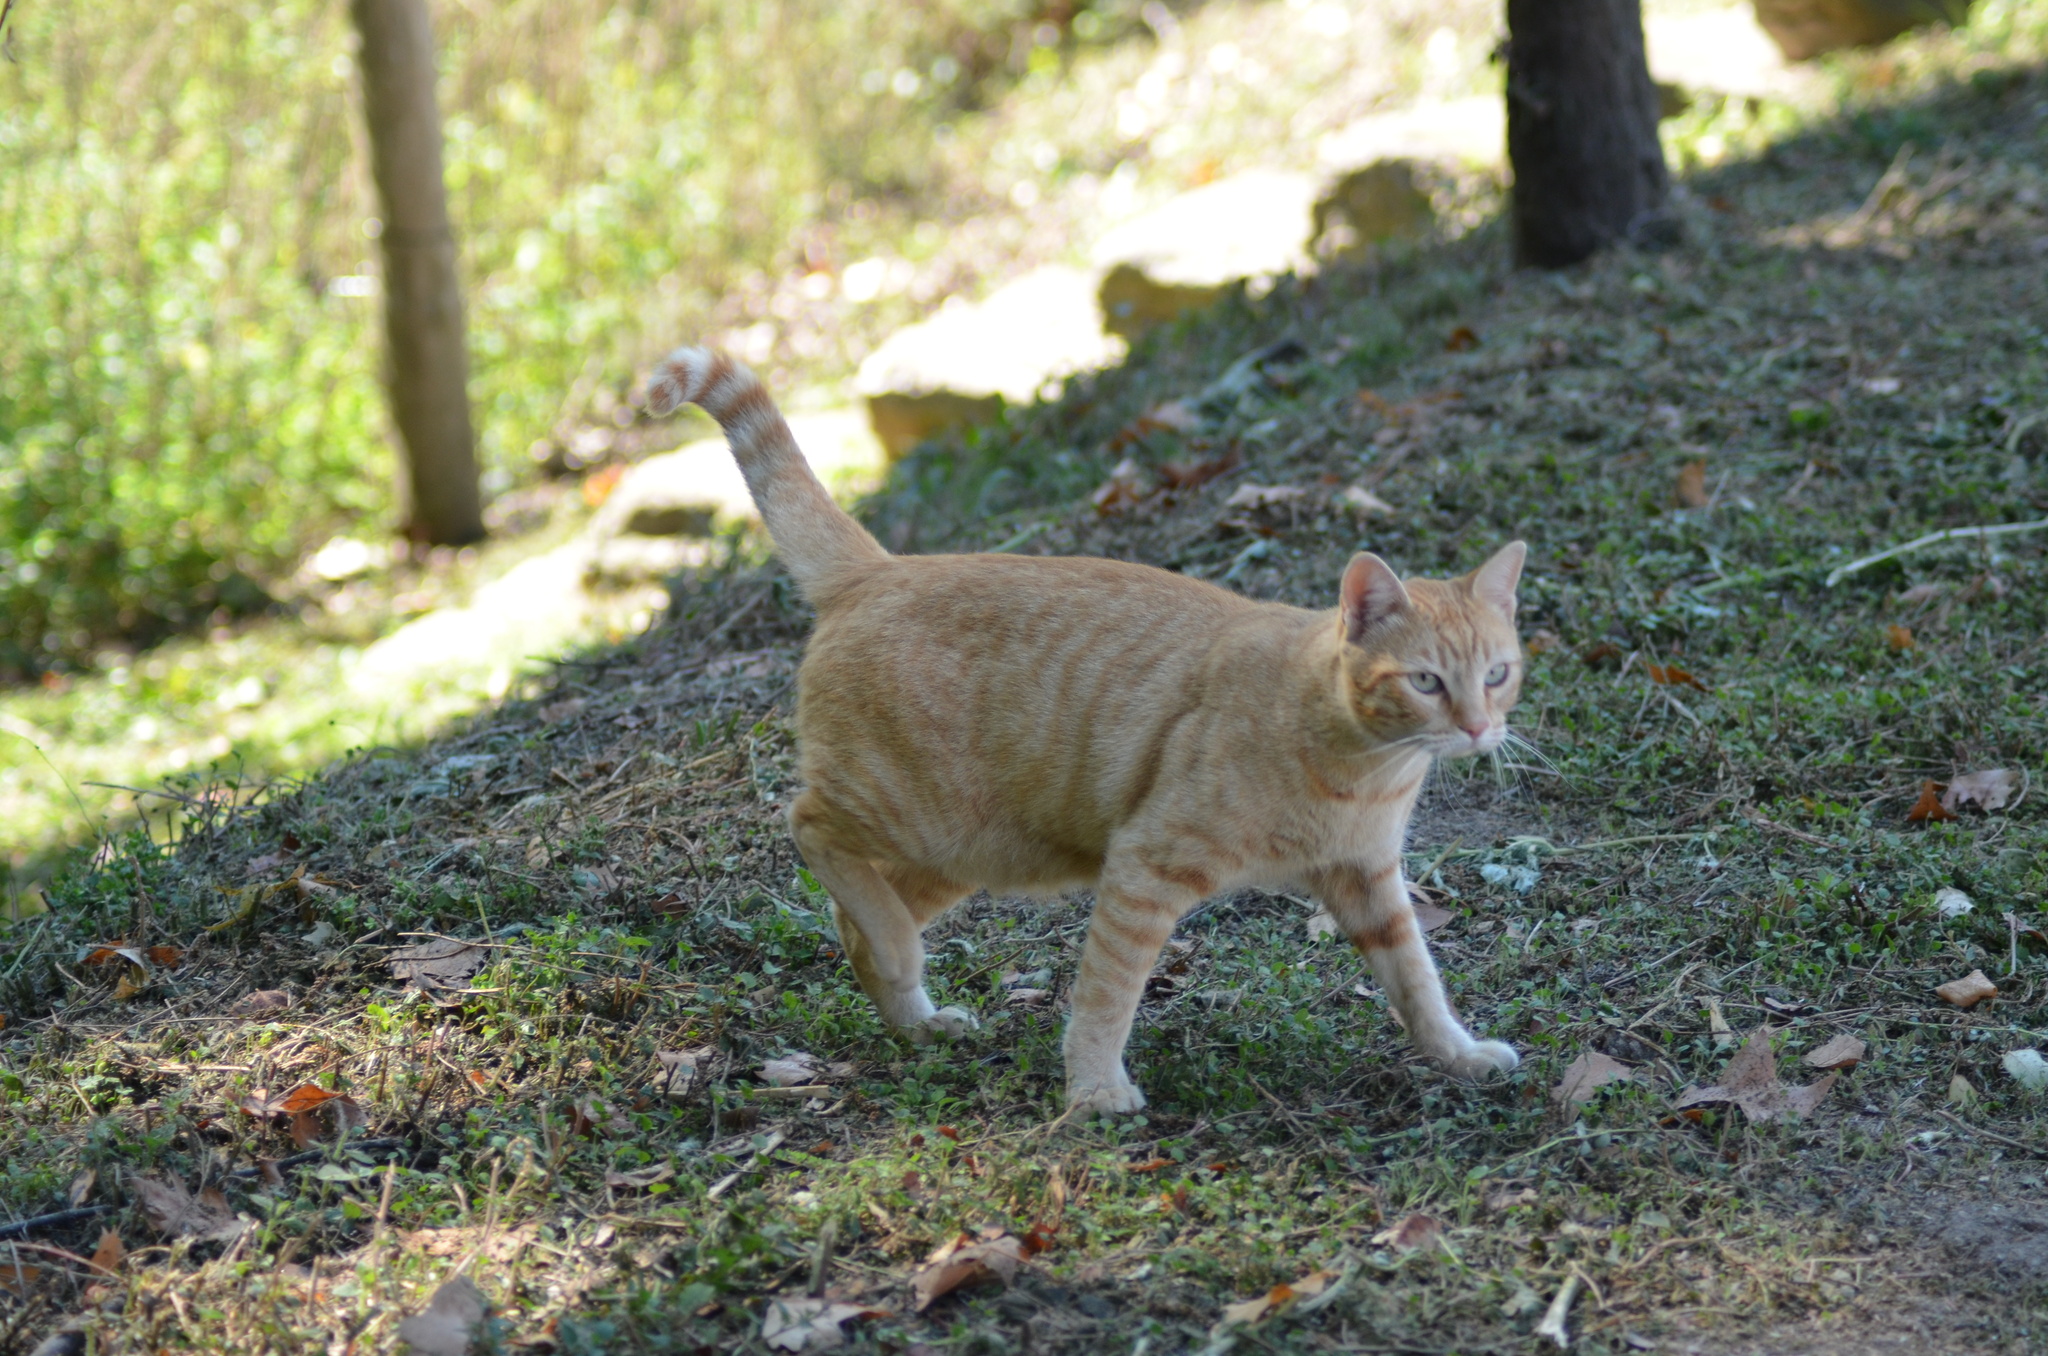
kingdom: Animalia
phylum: Chordata
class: Mammalia
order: Carnivora
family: Felidae
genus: Felis
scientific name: Felis catus
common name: Domestic cat
